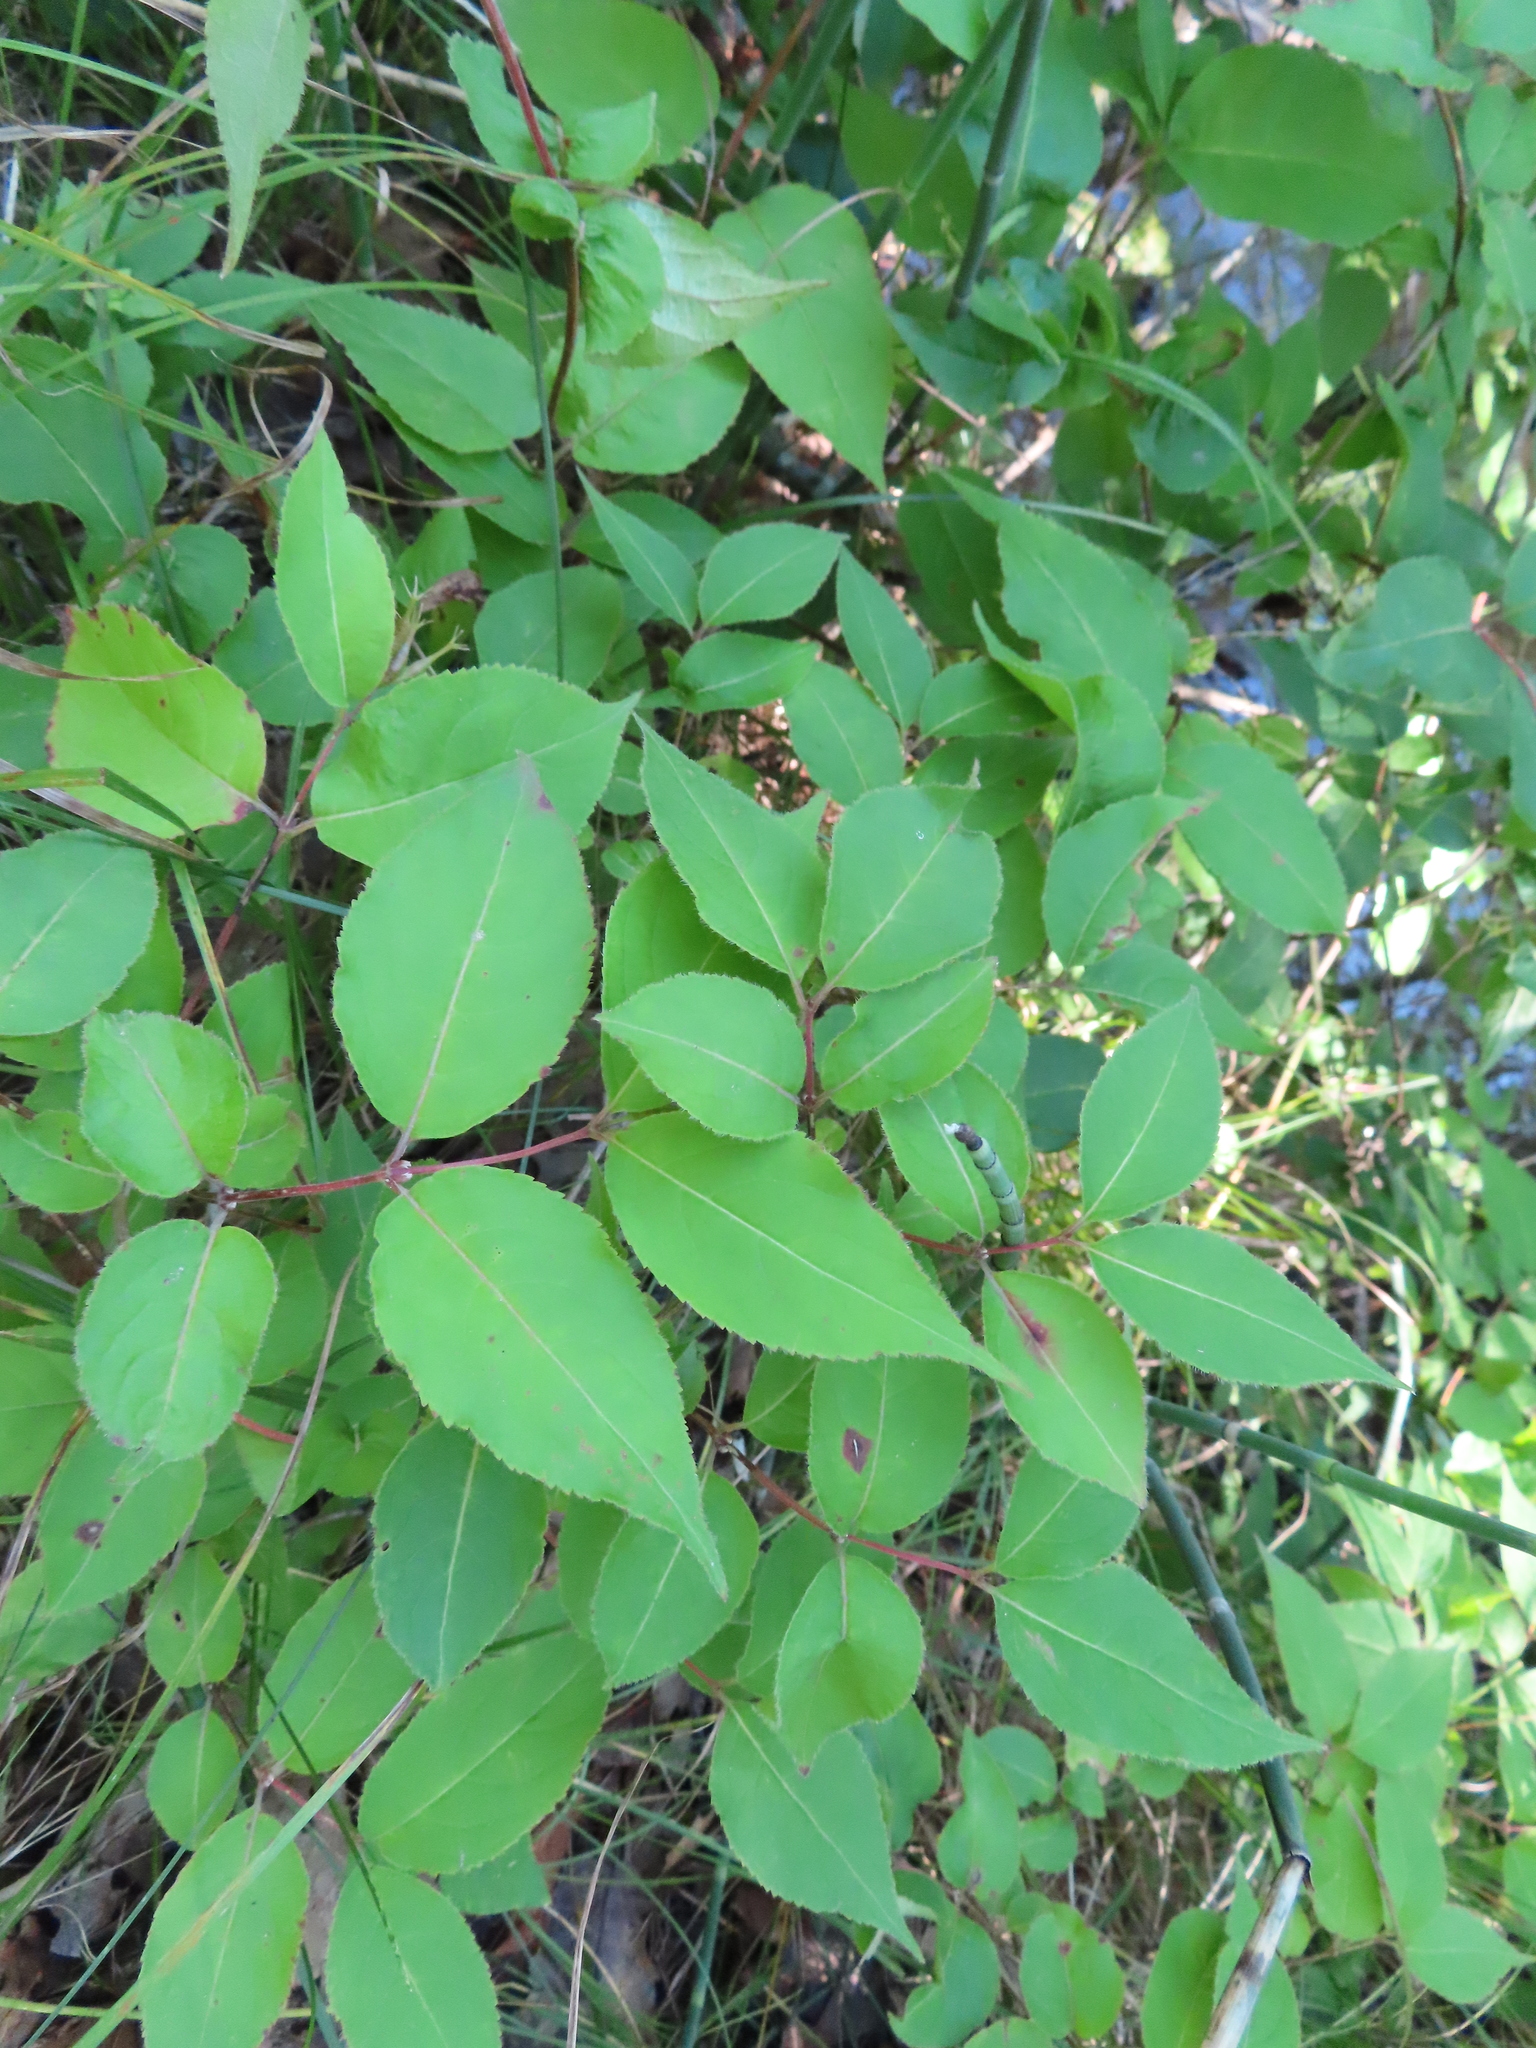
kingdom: Plantae
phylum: Tracheophyta
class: Magnoliopsida
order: Dipsacales
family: Caprifoliaceae
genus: Diervilla
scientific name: Diervilla lonicera
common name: Bush-honeysuckle
